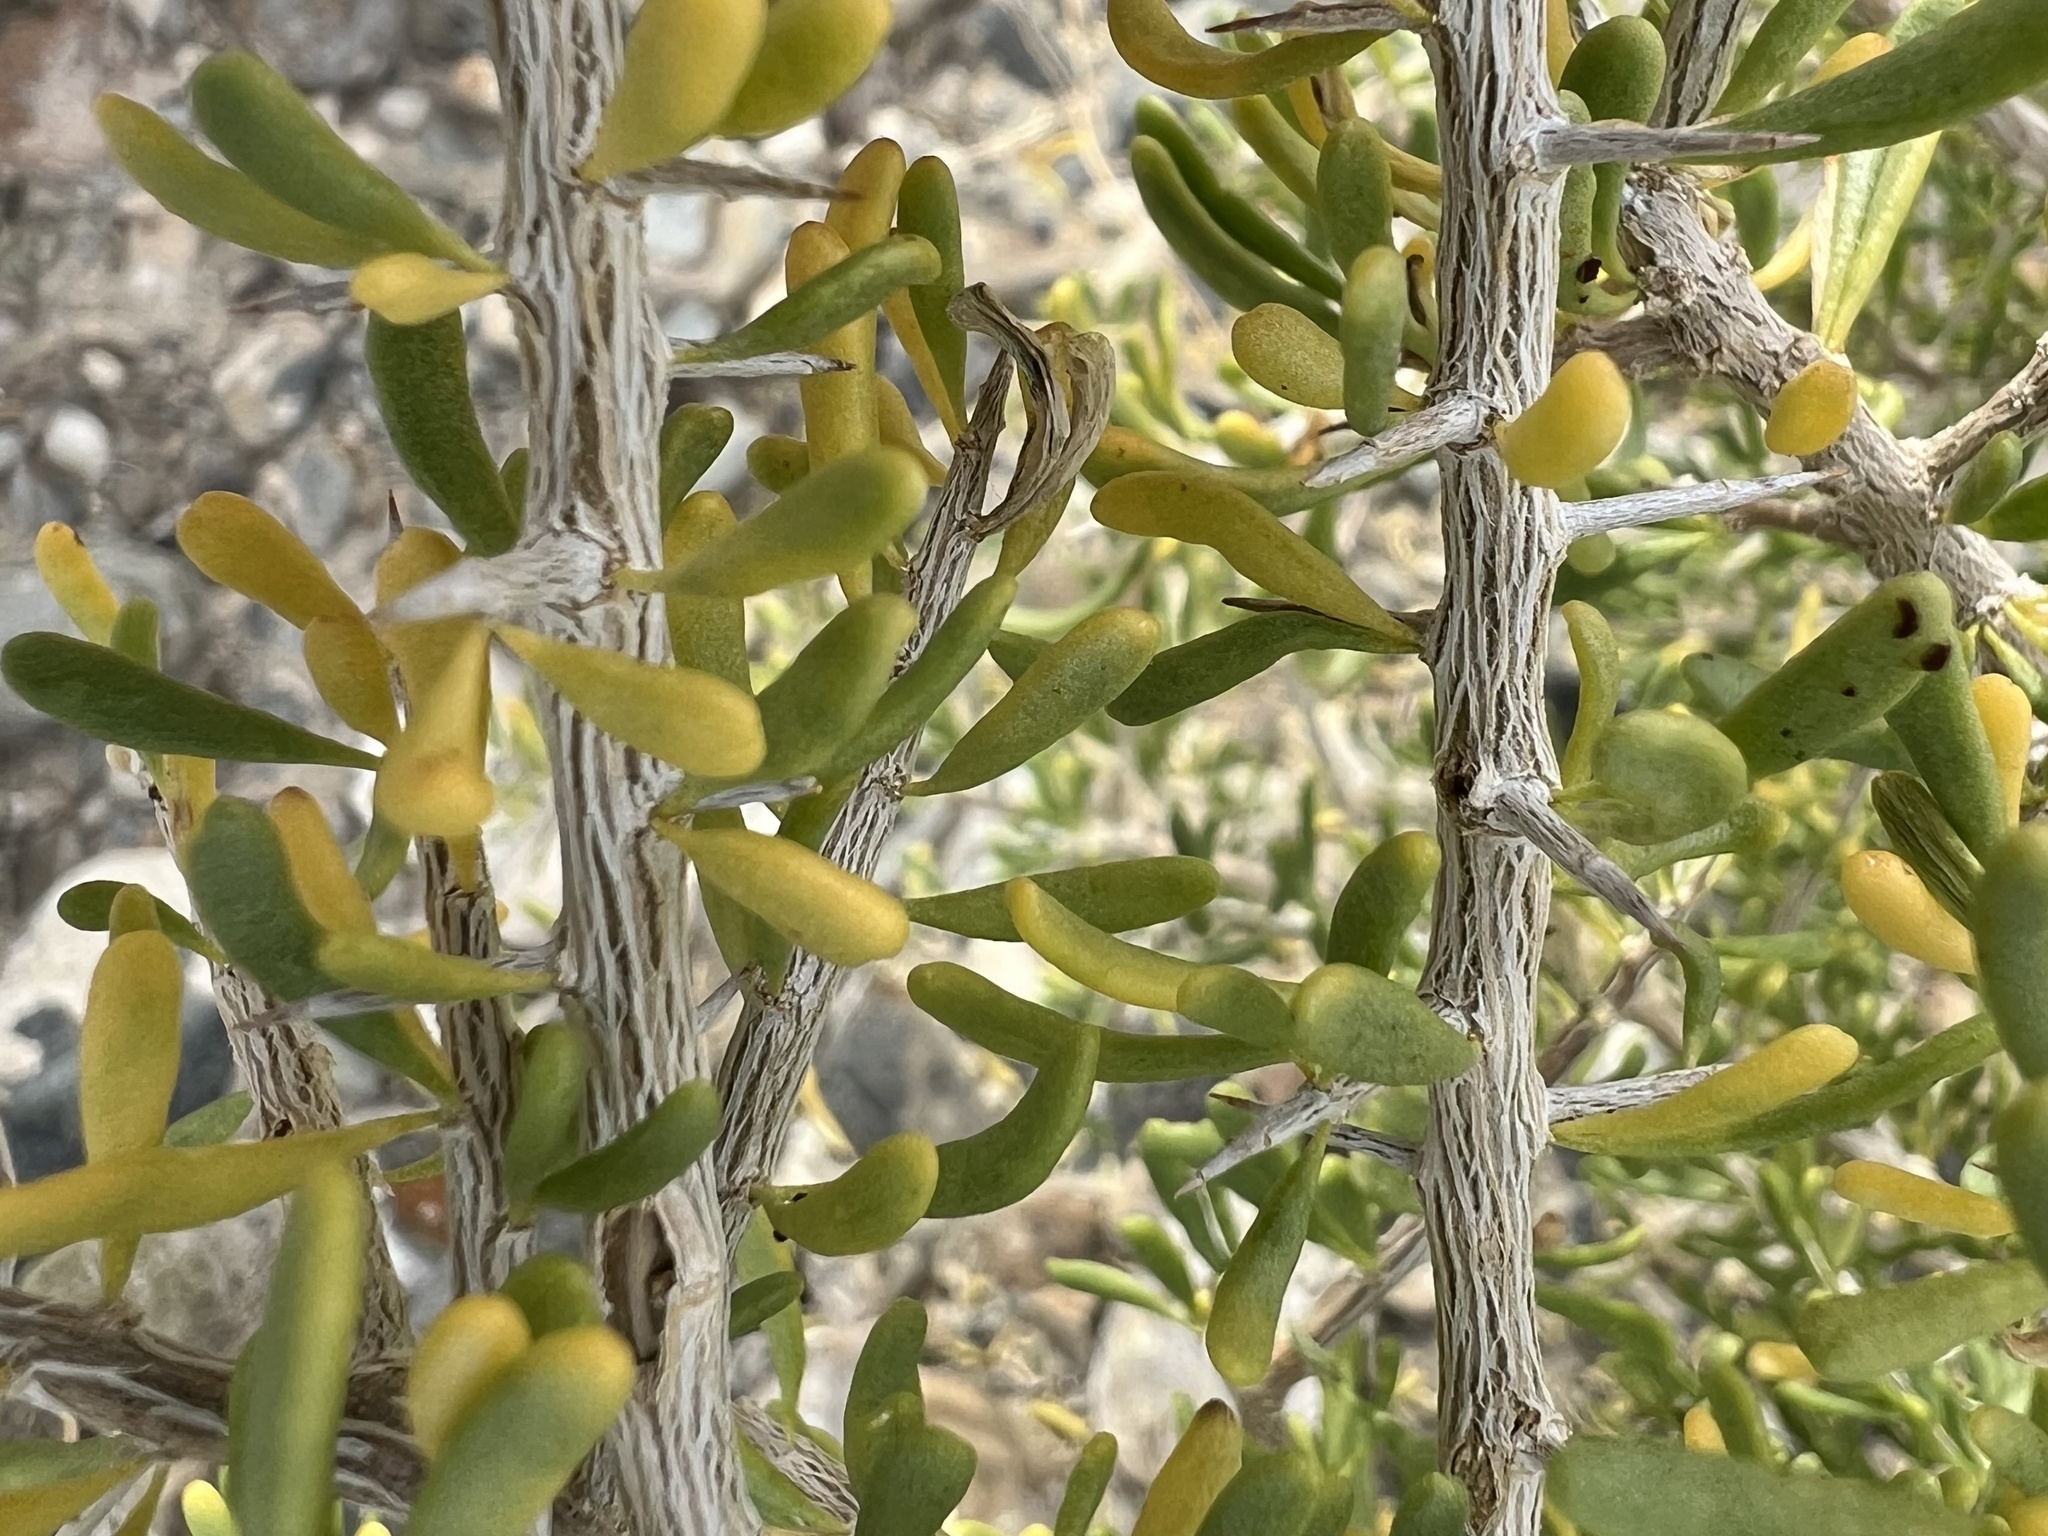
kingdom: Plantae
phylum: Tracheophyta
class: Magnoliopsida
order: Solanales
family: Solanaceae
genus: Lycium
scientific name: Lycium andersonii
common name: Water-jacket
